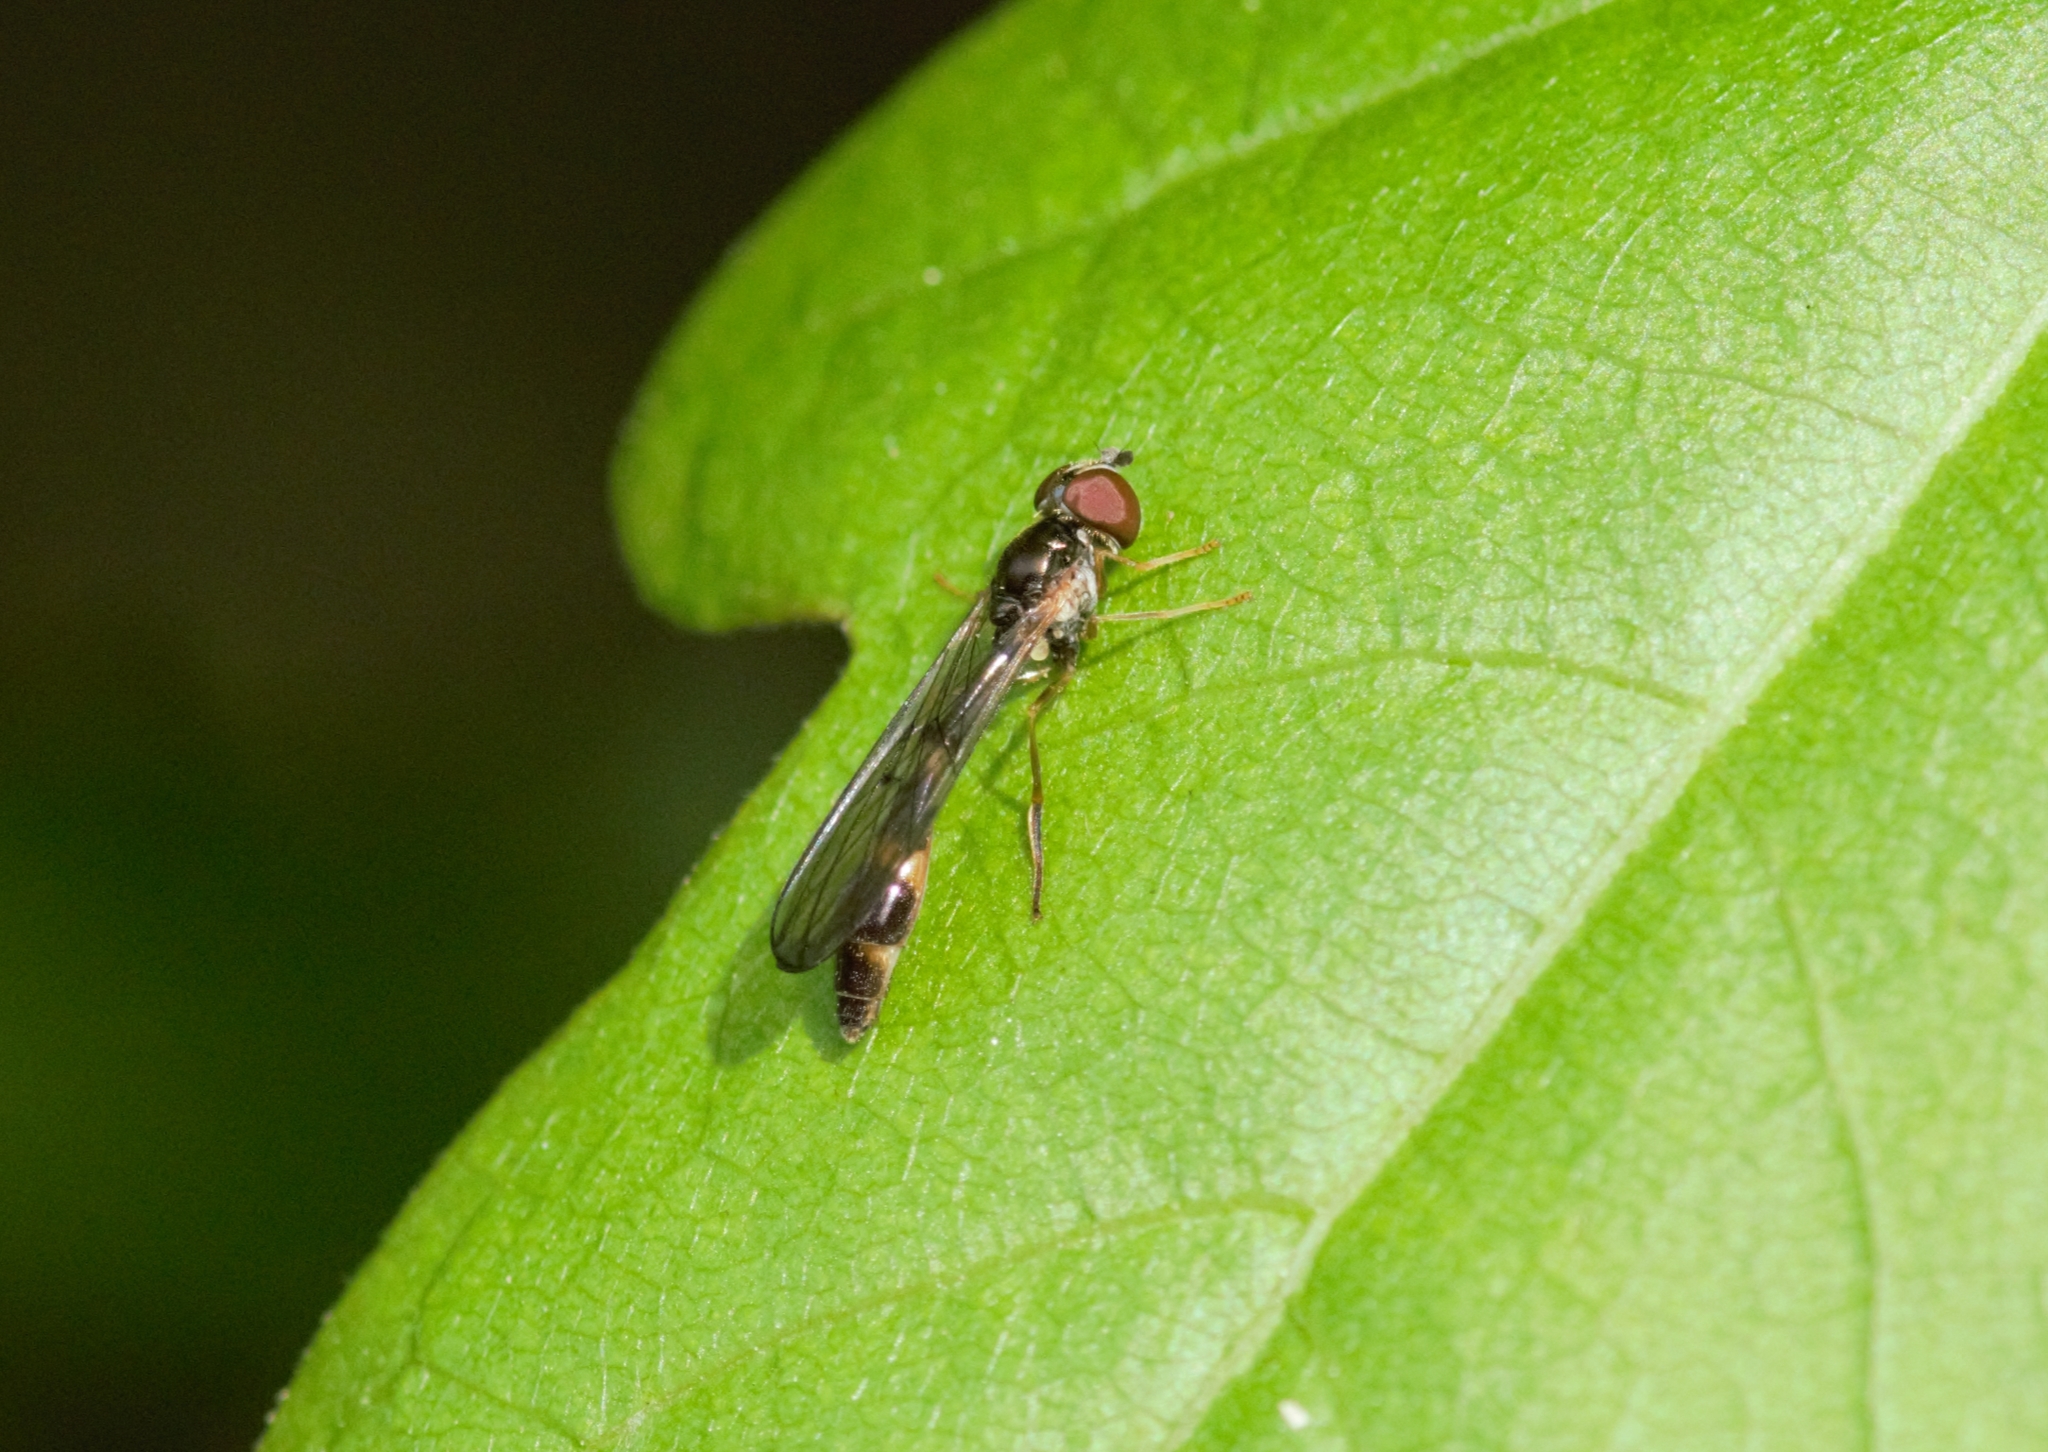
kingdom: Animalia
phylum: Arthropoda
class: Insecta
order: Diptera
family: Syrphidae
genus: Baccha
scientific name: Baccha elongata
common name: Common dainty
